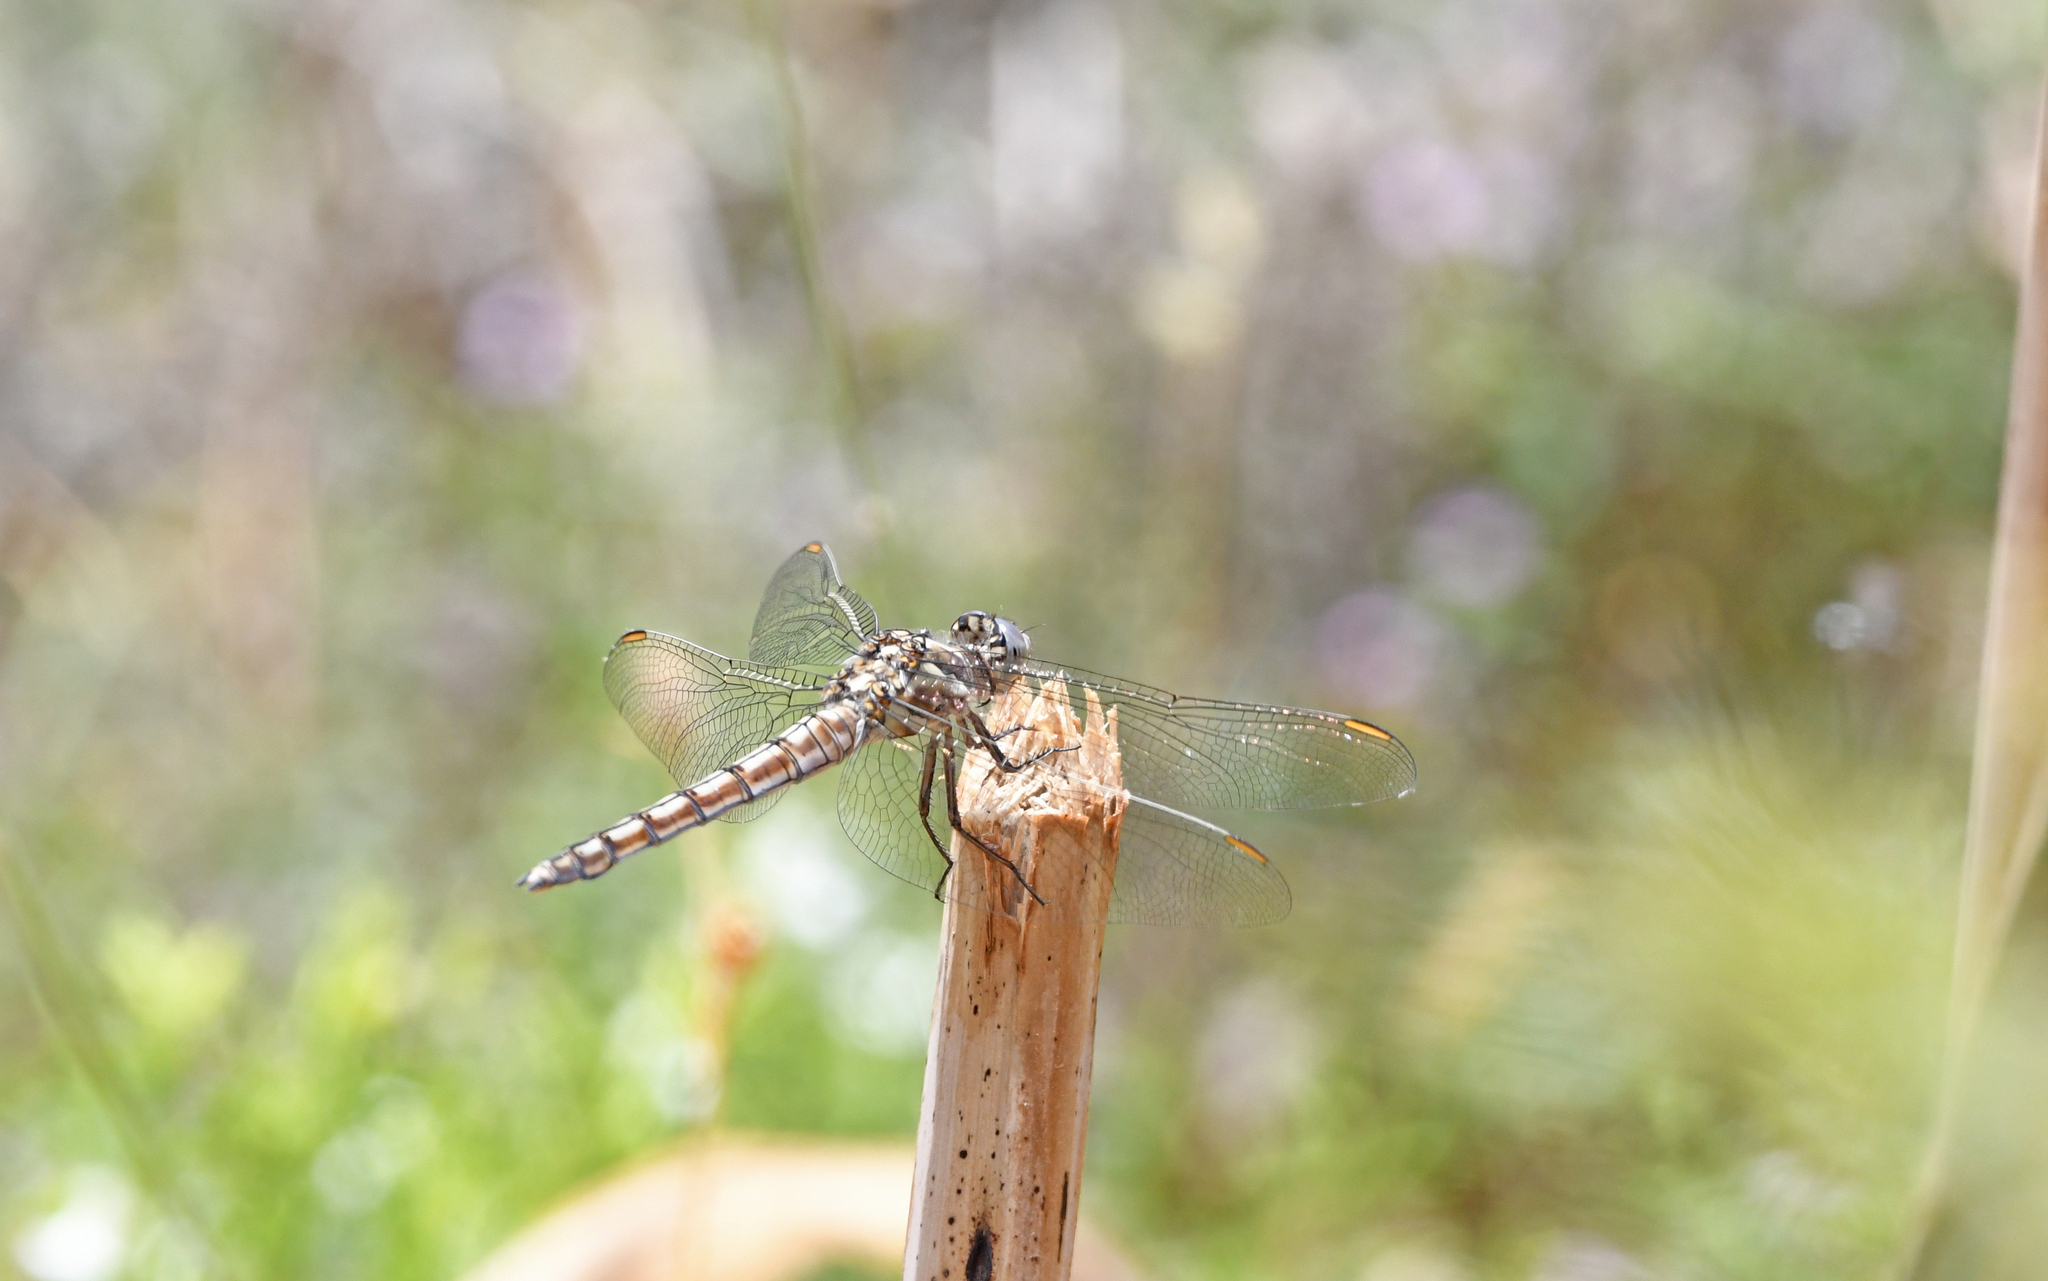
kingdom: Animalia
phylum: Arthropoda
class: Insecta
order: Odonata
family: Libellulidae
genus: Orthetrum
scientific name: Orthetrum brunneum
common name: Southern skimmer
